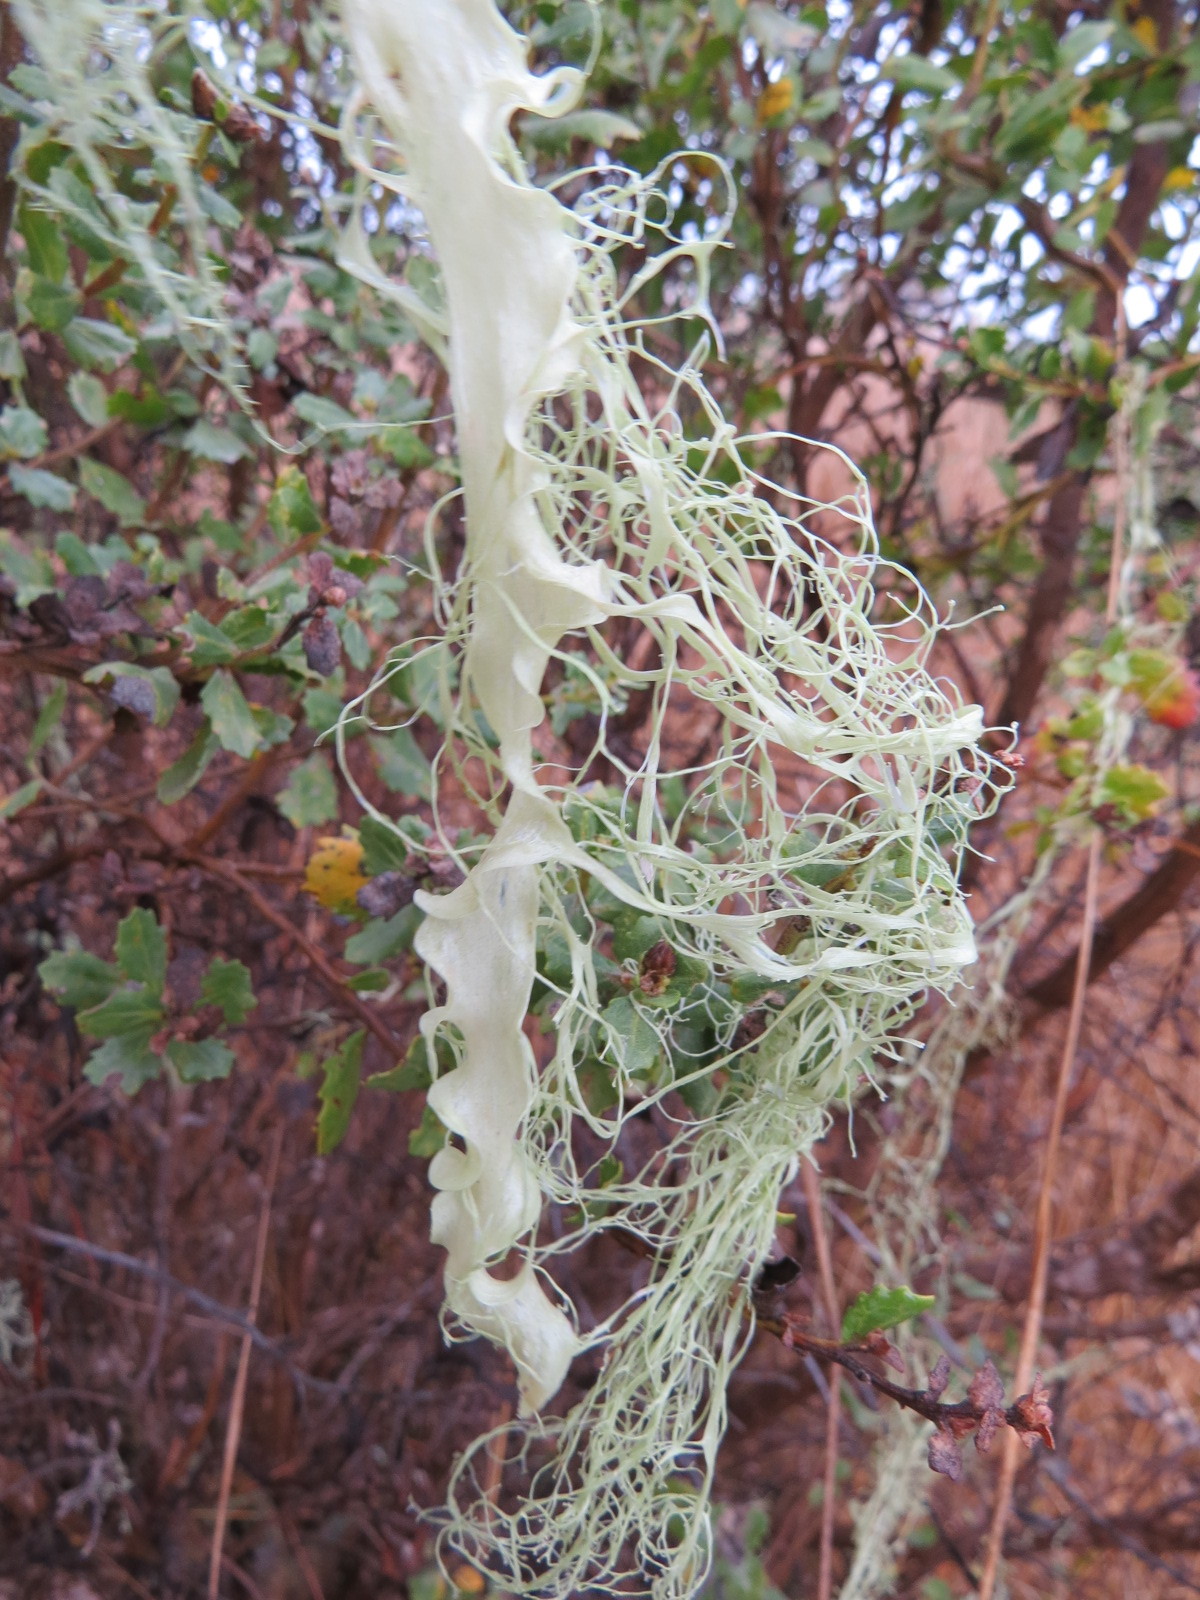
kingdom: Fungi
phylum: Ascomycota
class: Lecanoromycetes
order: Lecanorales
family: Ramalinaceae
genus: Ramalina
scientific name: Ramalina menziesii
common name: Lace lichen
